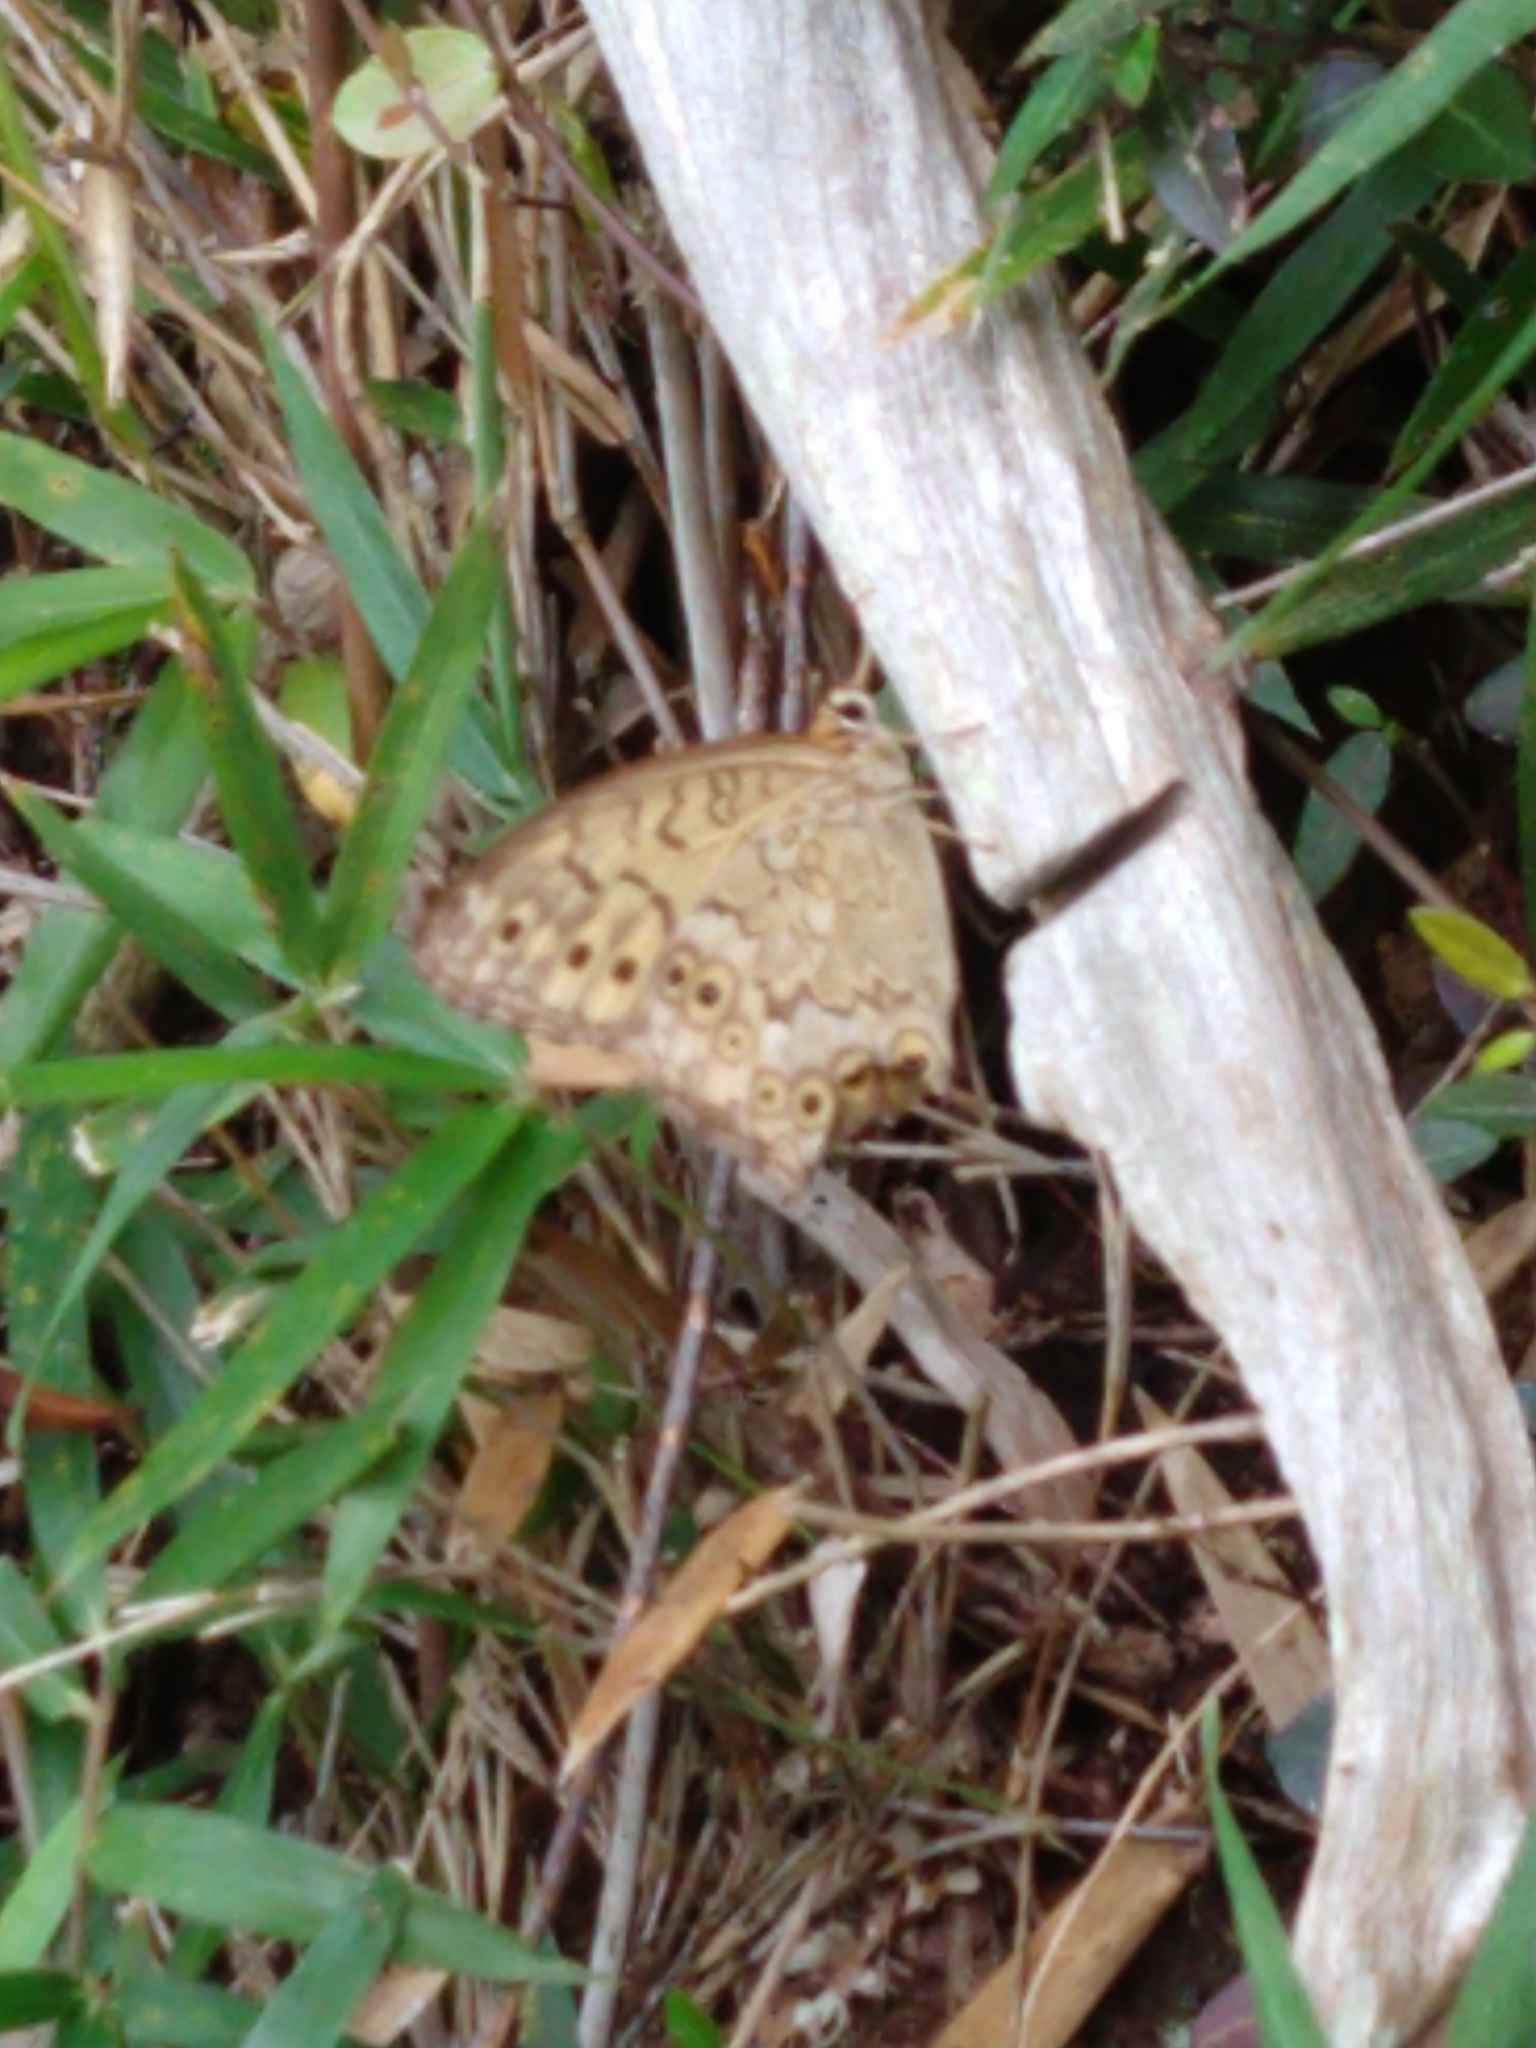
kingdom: Animalia
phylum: Arthropoda
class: Insecta
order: Lepidoptera
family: Nymphalidae
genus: Neope
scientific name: Neope goschkevitschii
